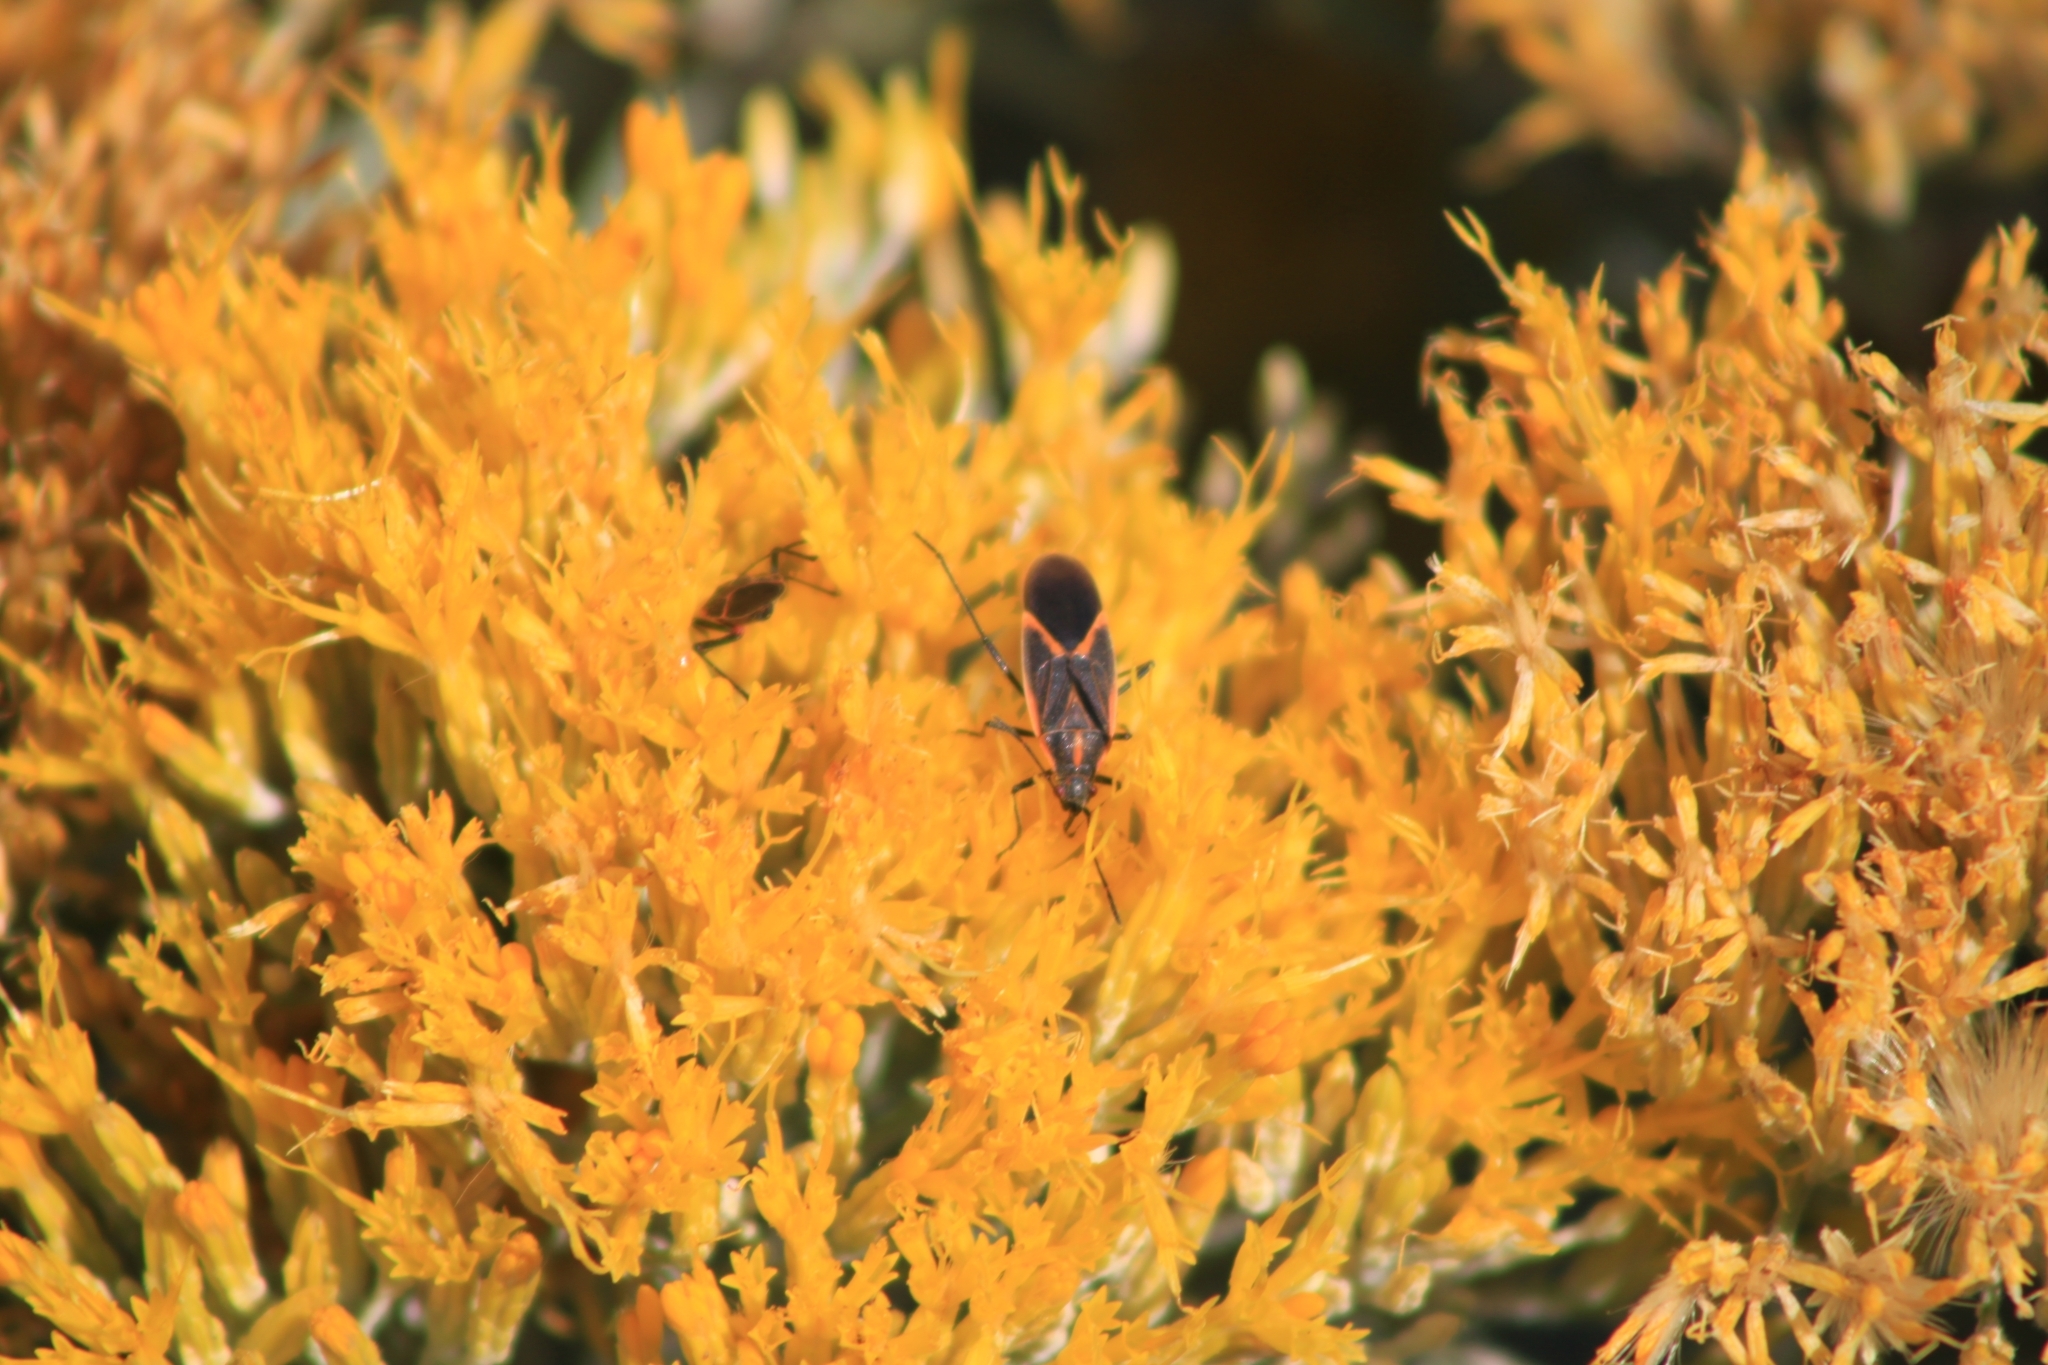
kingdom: Animalia
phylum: Arthropoda
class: Insecta
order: Hemiptera
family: Rhopalidae
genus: Boisea
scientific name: Boisea trivittata
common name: Boxelder bug
